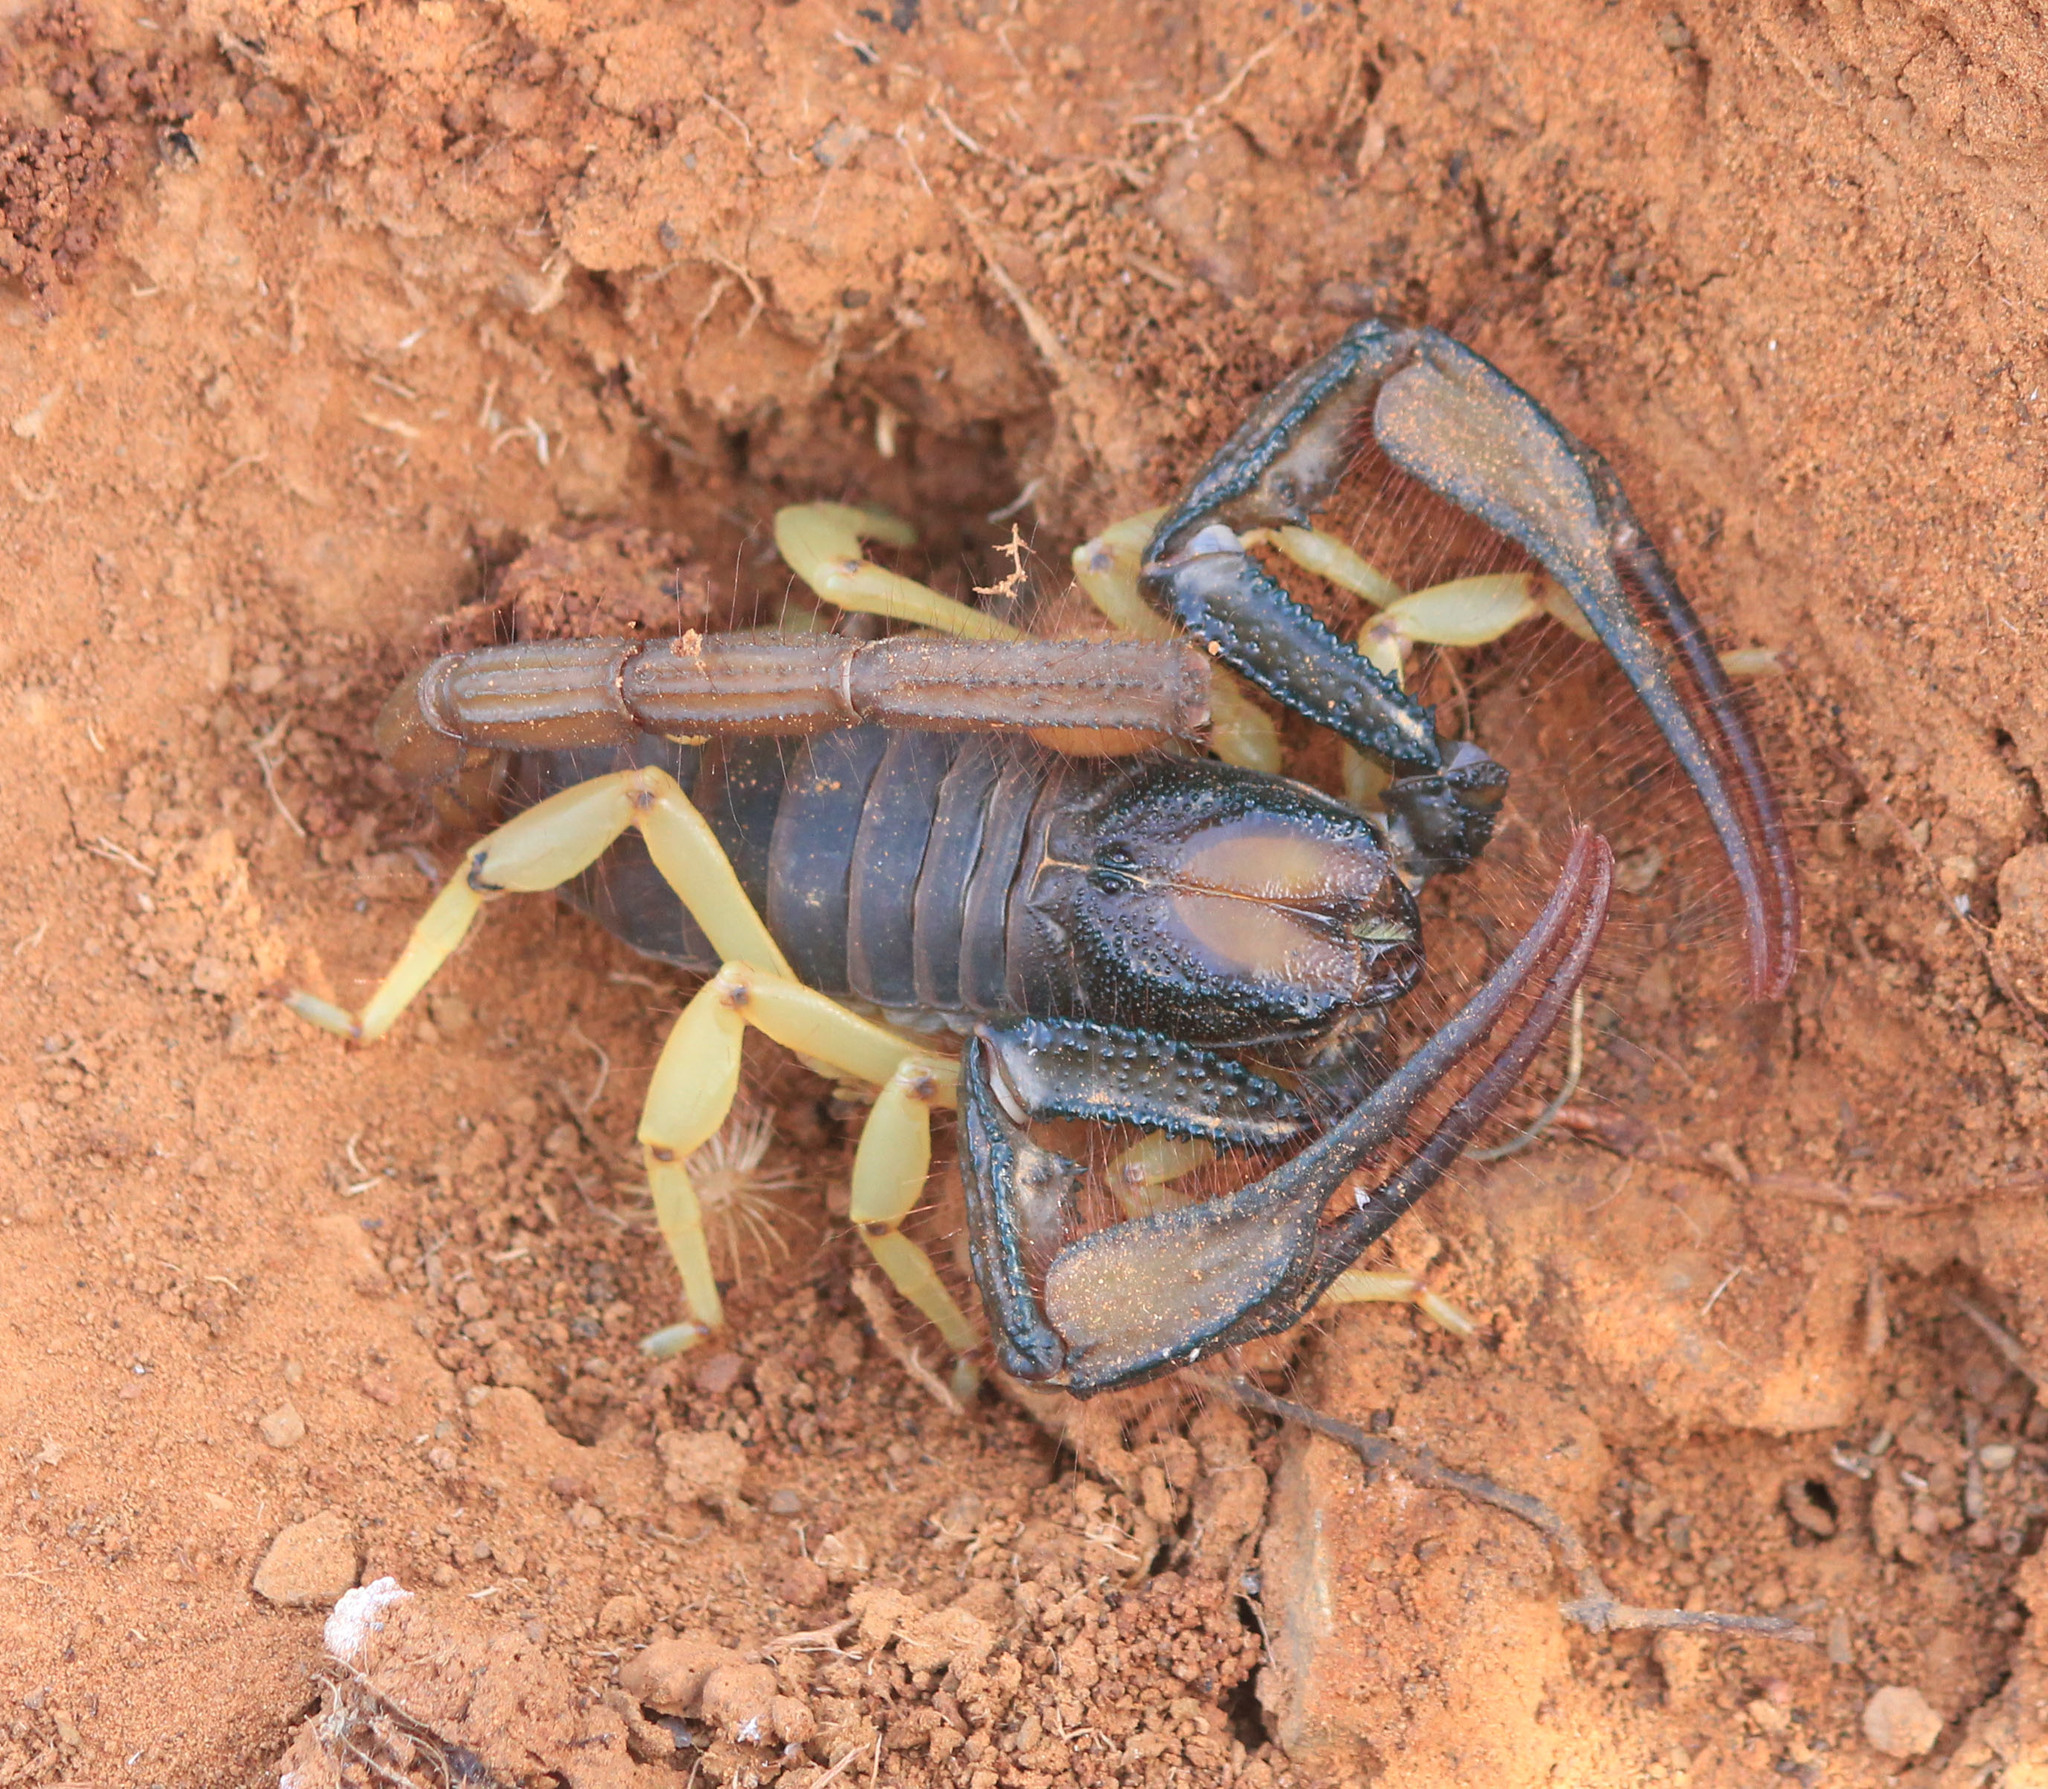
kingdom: Animalia
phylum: Arthropoda
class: Arachnida
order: Scorpiones
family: Scorpionidae
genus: Opistophthalmus
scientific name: Opistophthalmus pallipes
